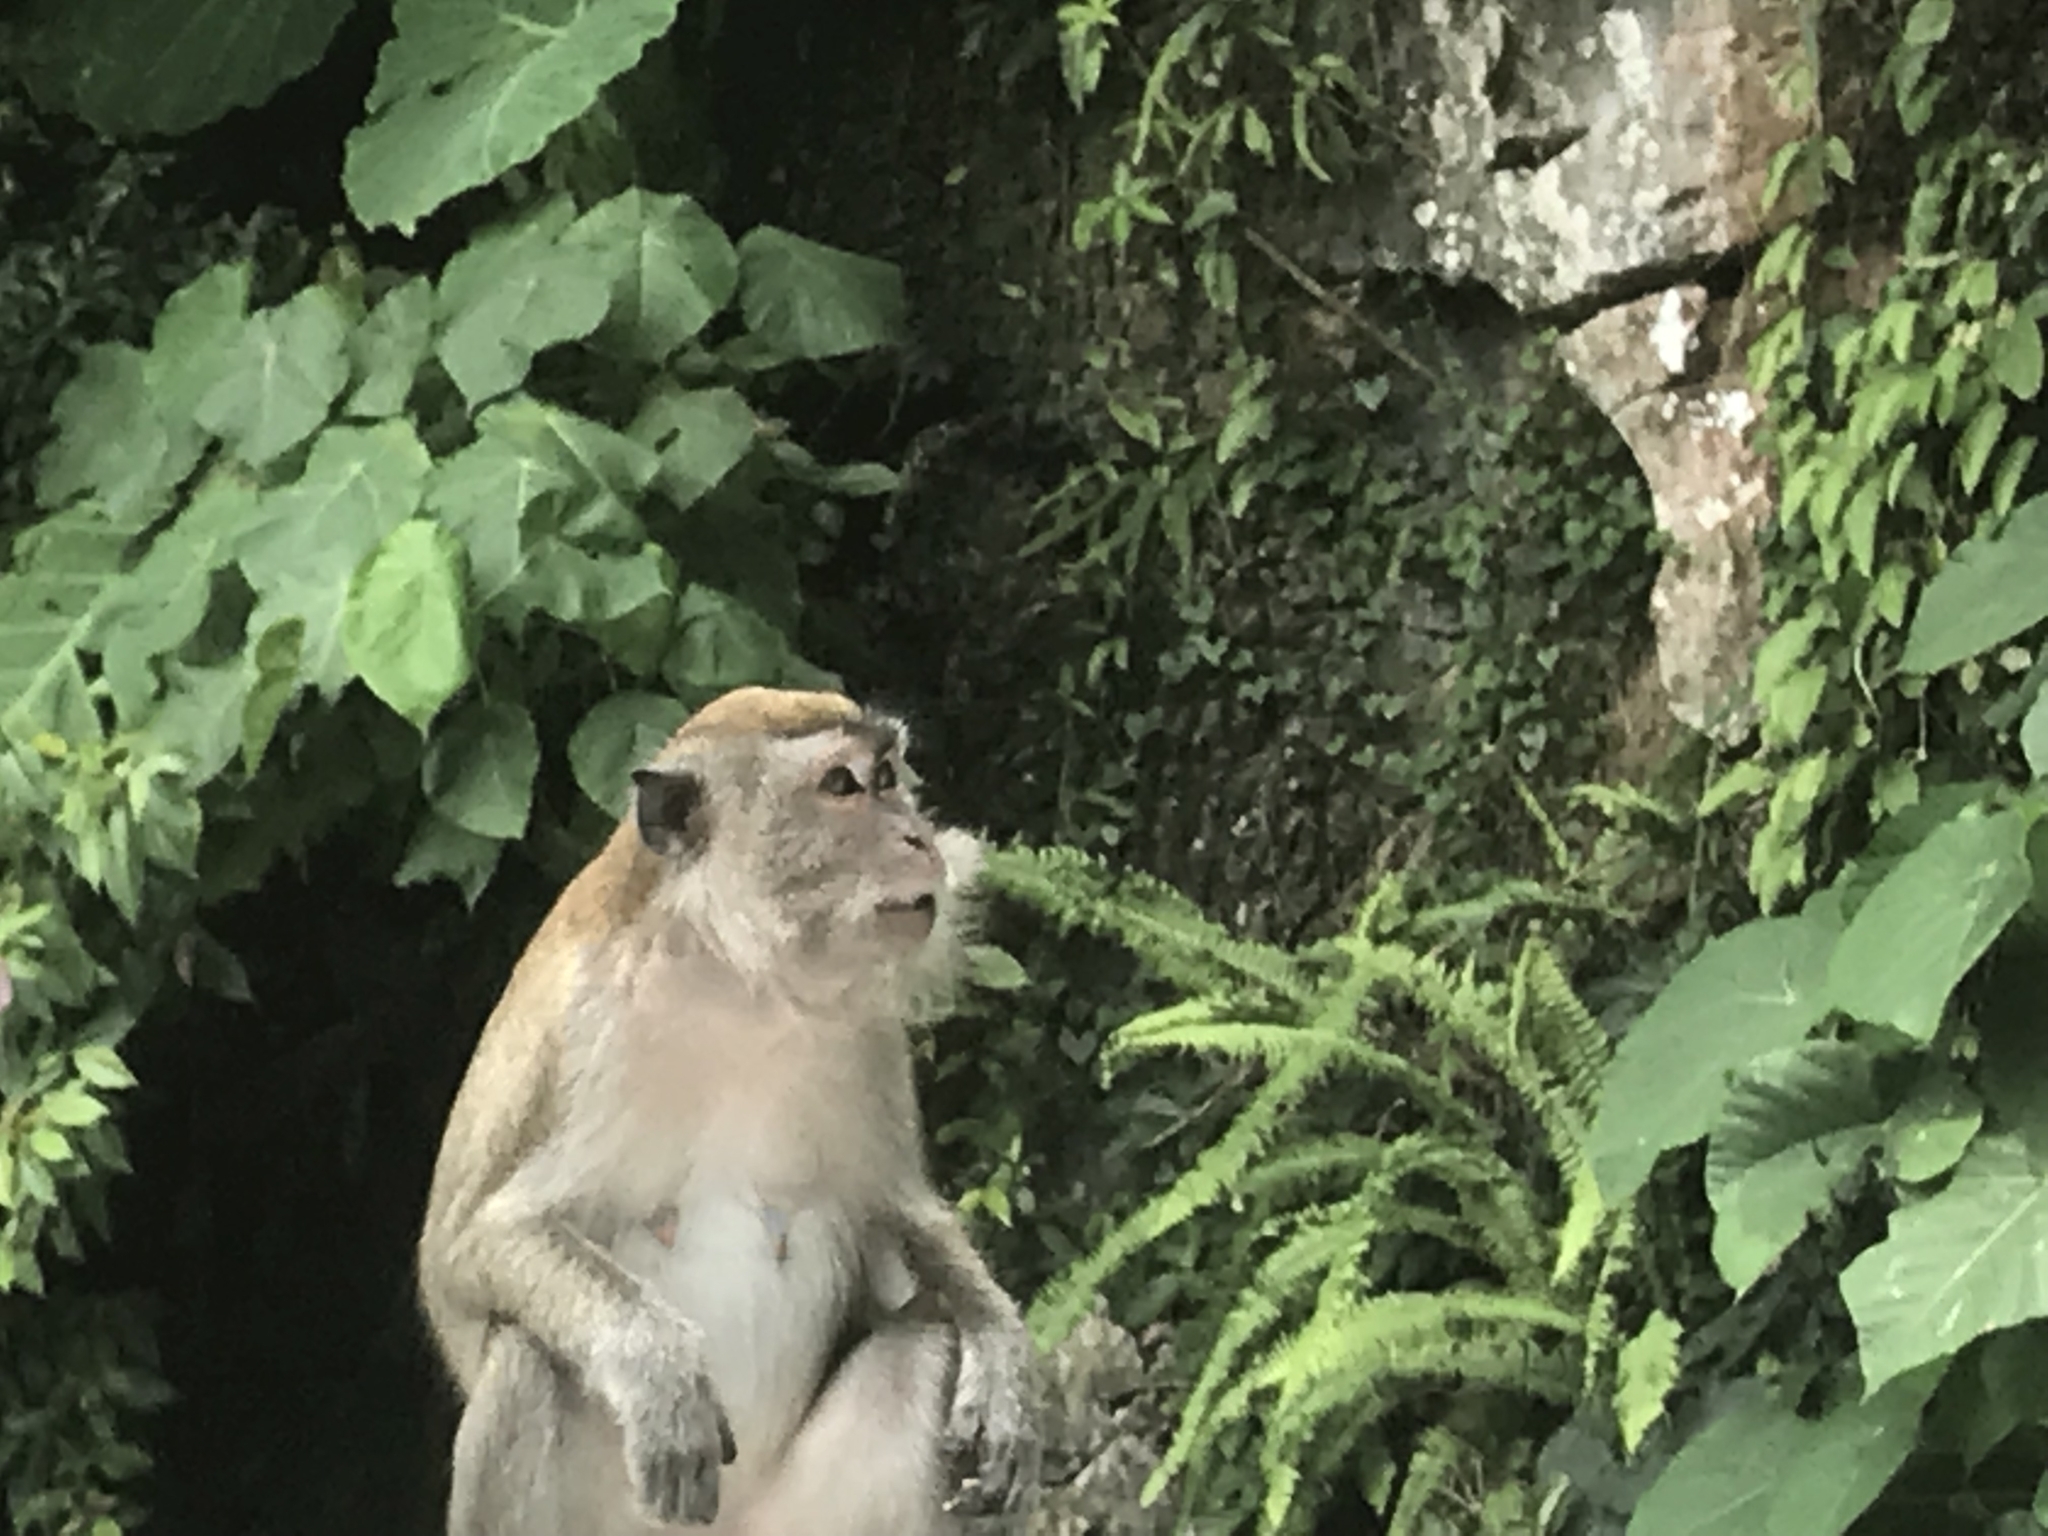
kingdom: Animalia
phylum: Chordata
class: Mammalia
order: Primates
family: Cercopithecidae
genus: Macaca
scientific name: Macaca fascicularis
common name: Crab-eating macaque
